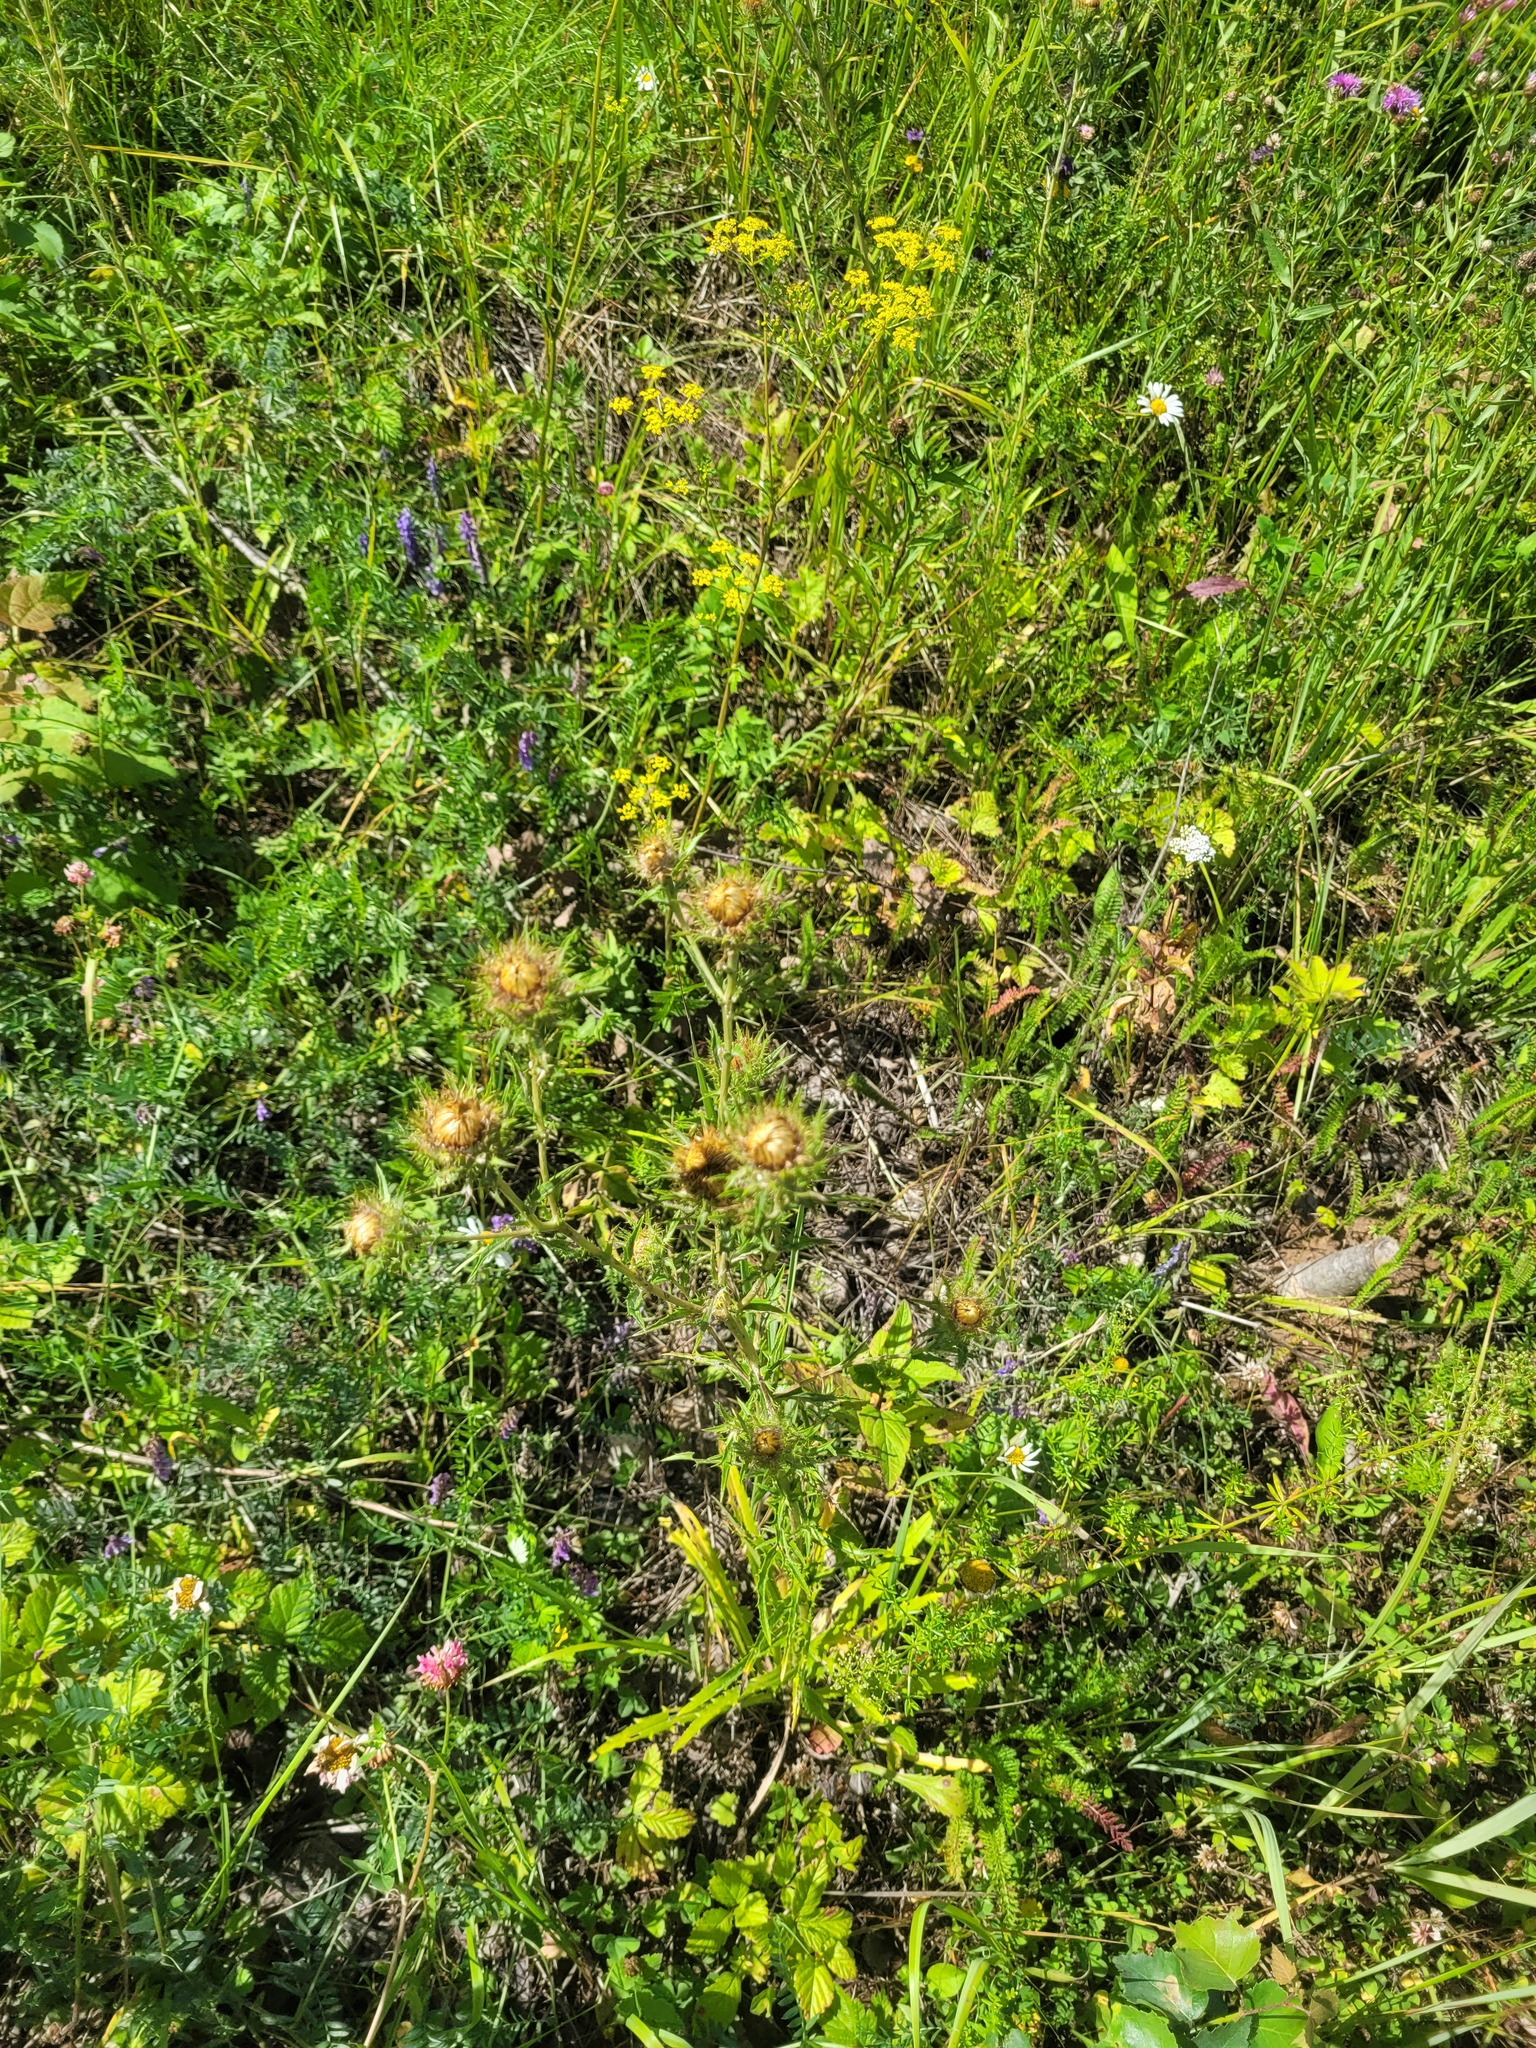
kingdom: Plantae
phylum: Tracheophyta
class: Magnoliopsida
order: Asterales
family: Asteraceae
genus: Carlina
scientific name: Carlina biebersteinii
